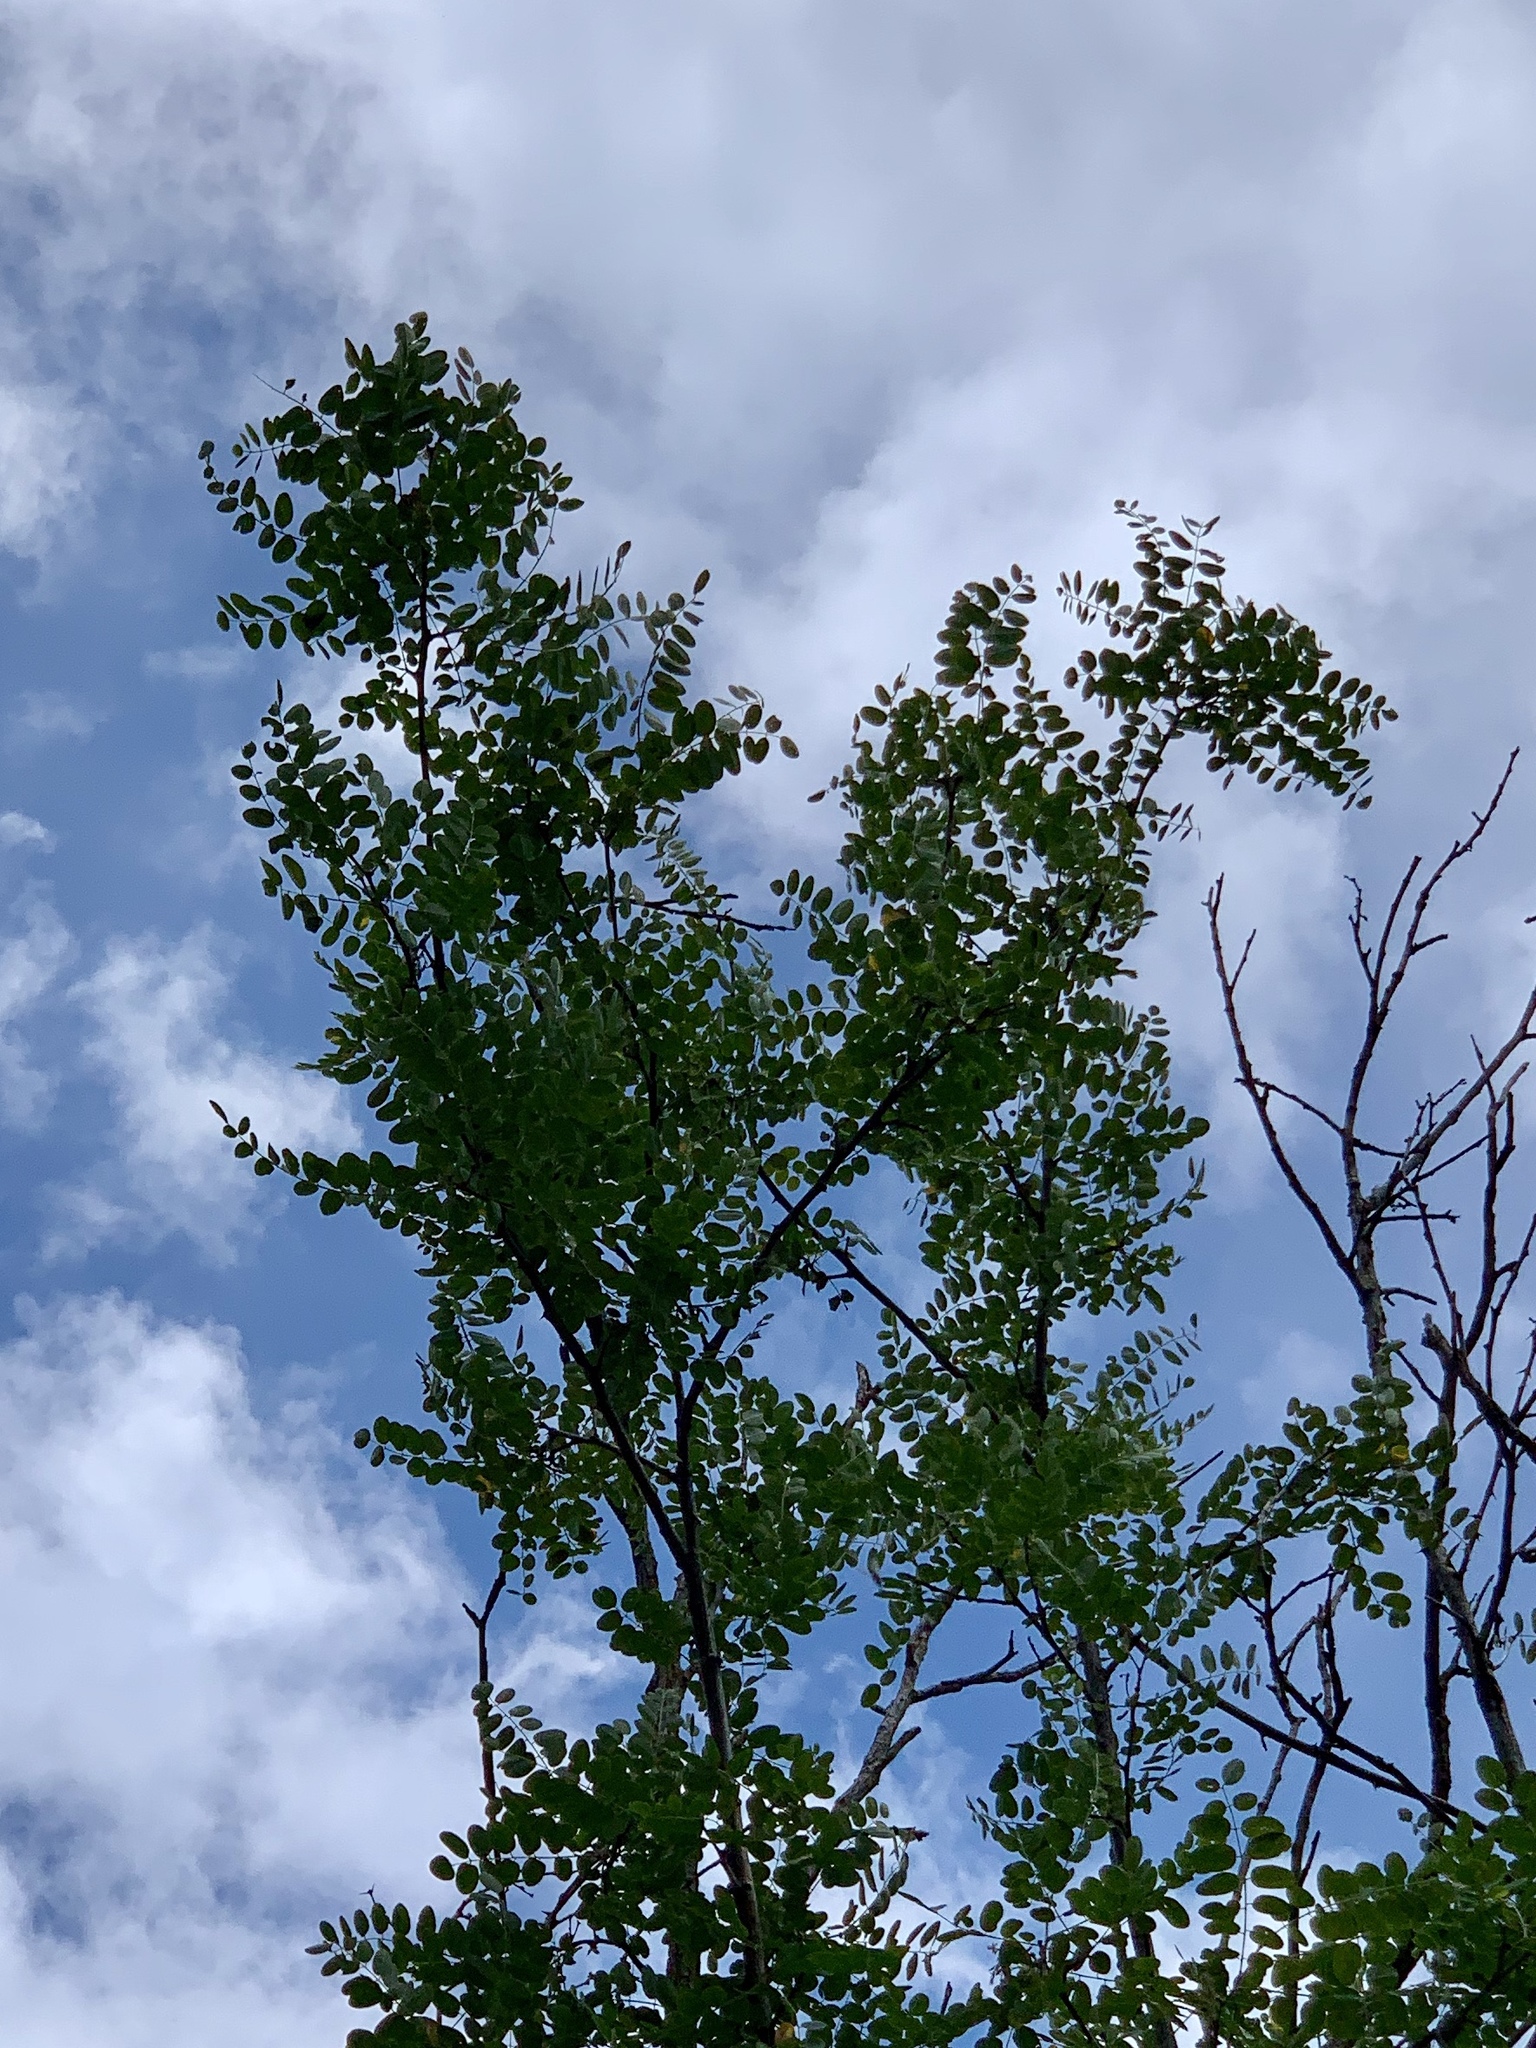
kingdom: Plantae
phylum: Tracheophyta
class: Magnoliopsida
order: Fabales
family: Fabaceae
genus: Robinia
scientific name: Robinia neomexicana
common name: New mexico locust
